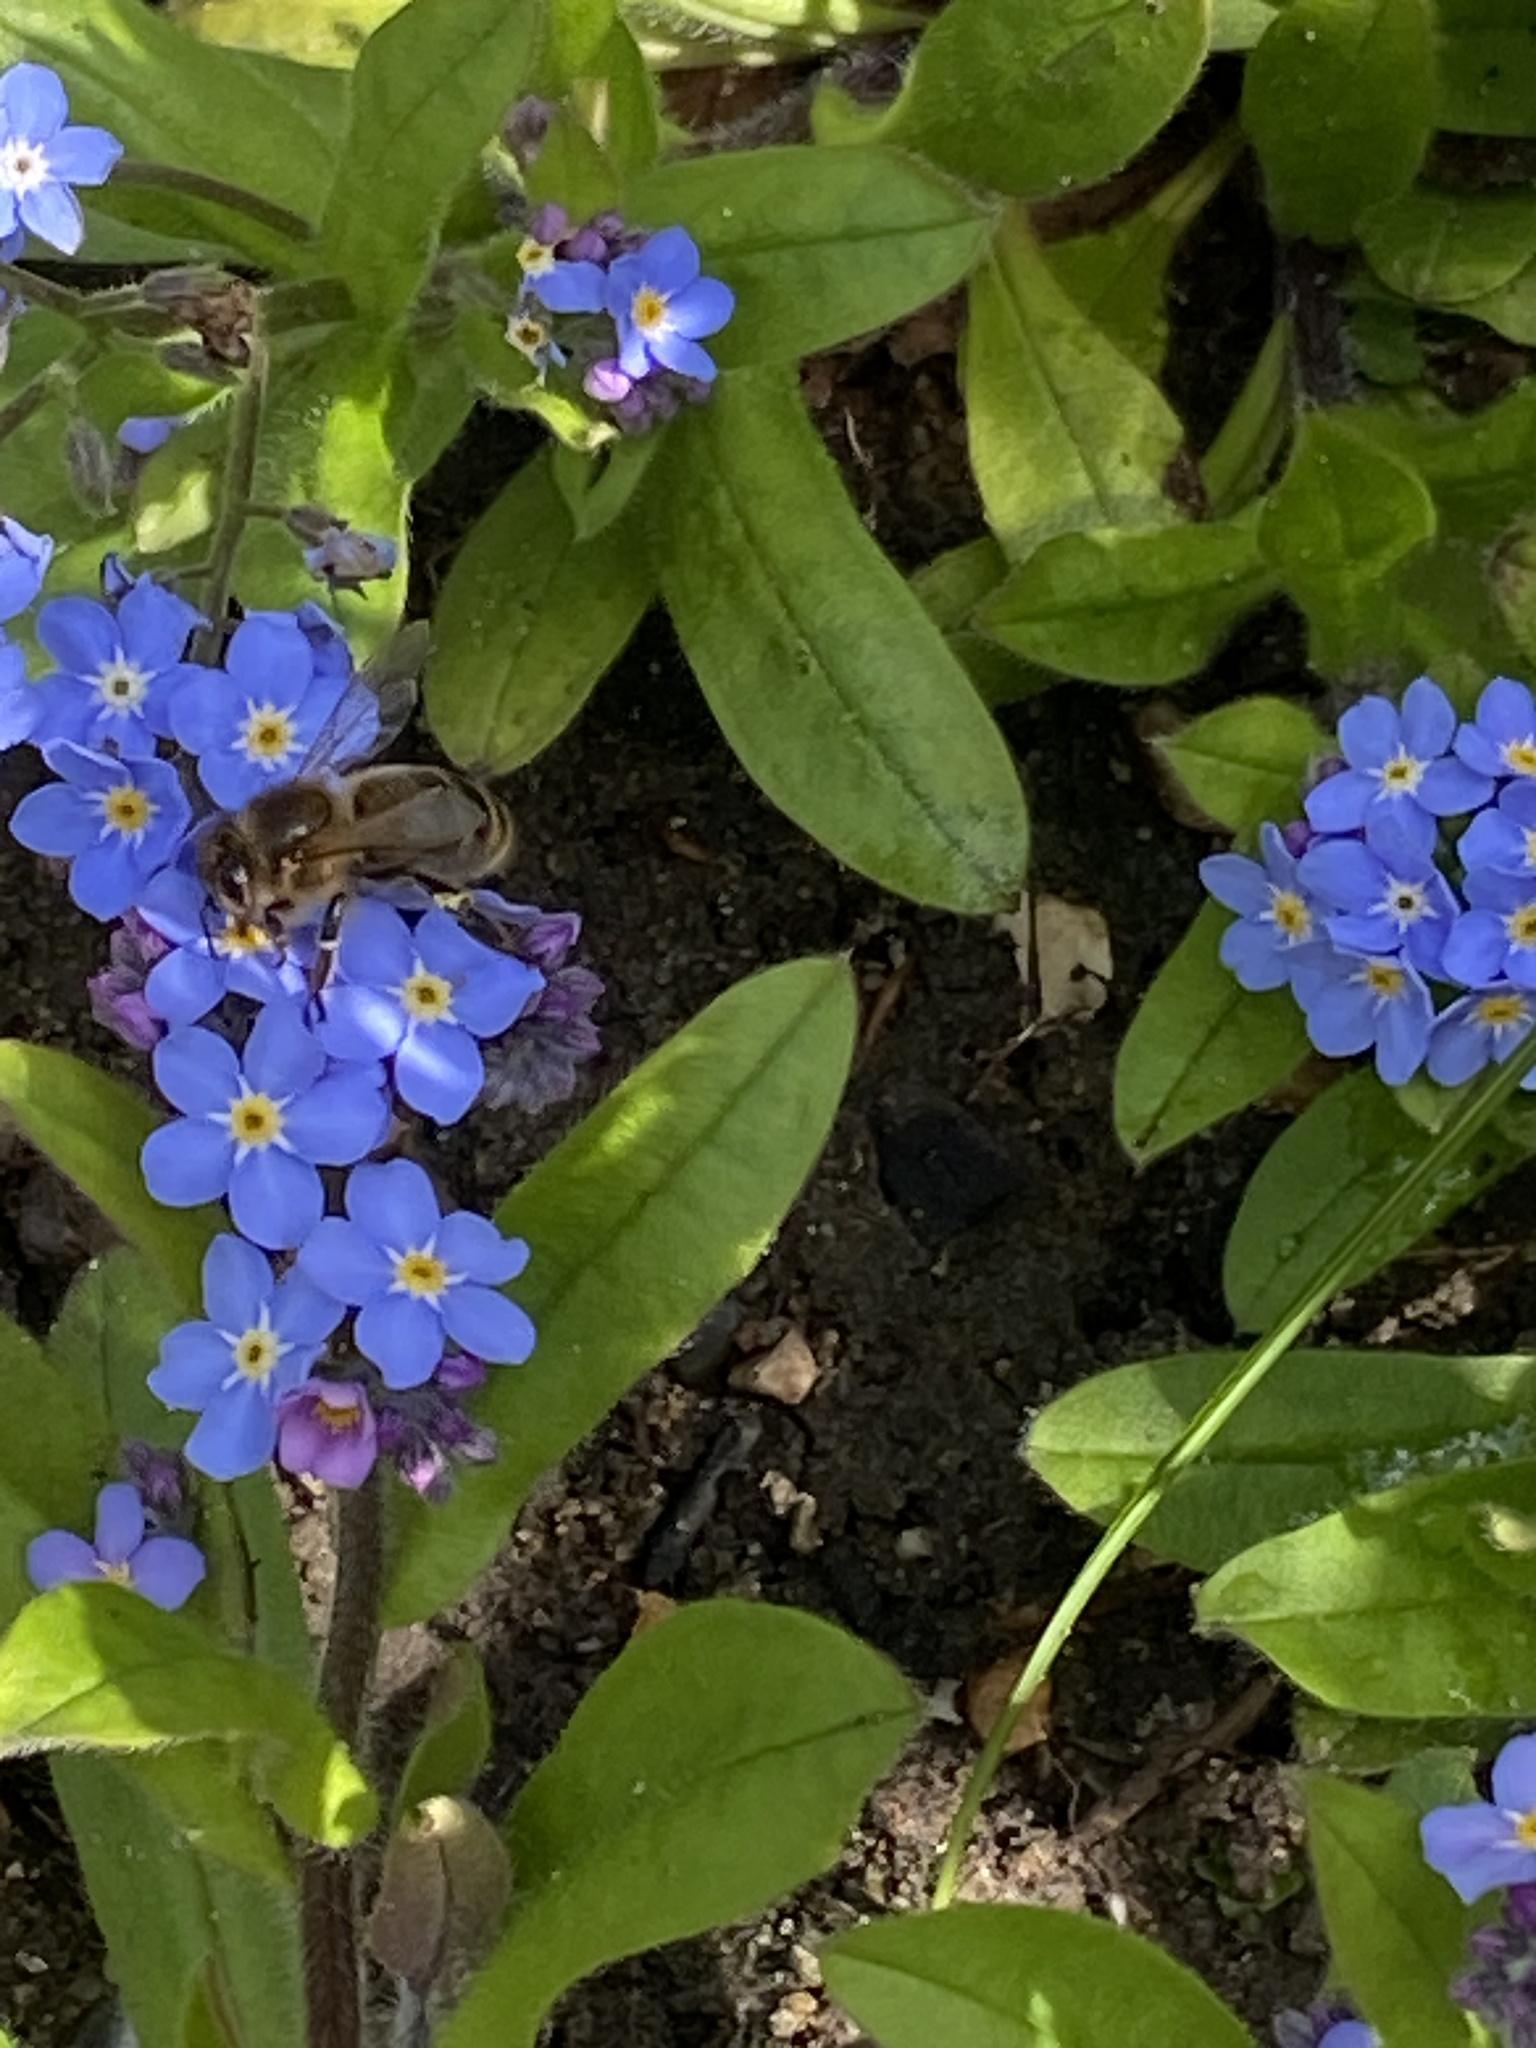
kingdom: Animalia
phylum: Arthropoda
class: Insecta
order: Hymenoptera
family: Apidae
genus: Apis
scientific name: Apis mellifera
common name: Honey bee
